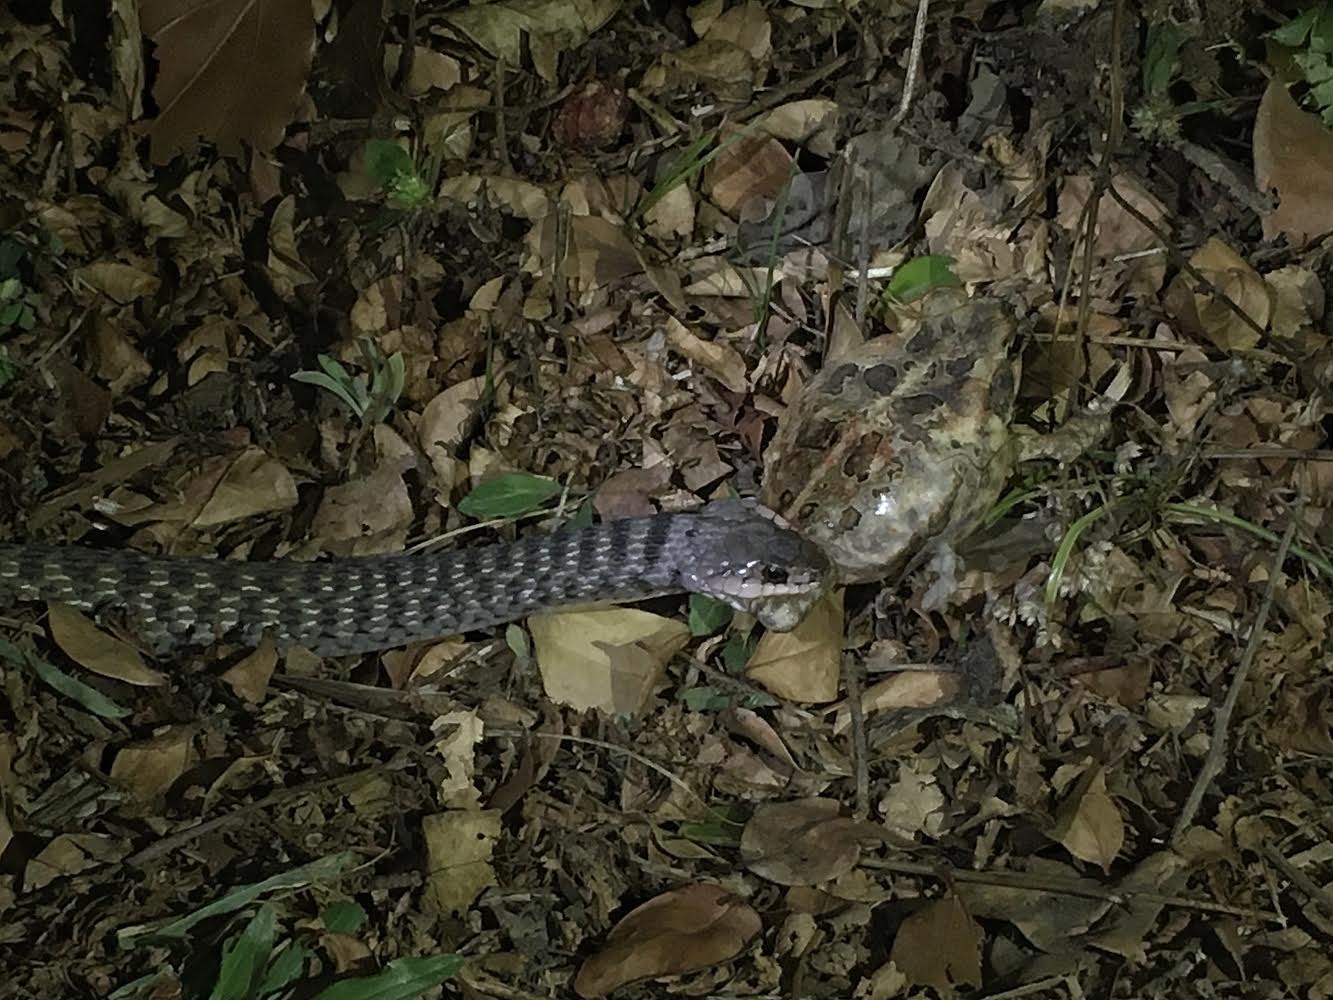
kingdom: Animalia
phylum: Chordata
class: Squamata
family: Colubridae
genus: Tropidonophis
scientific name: Tropidonophis mairii
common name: Common keelback
